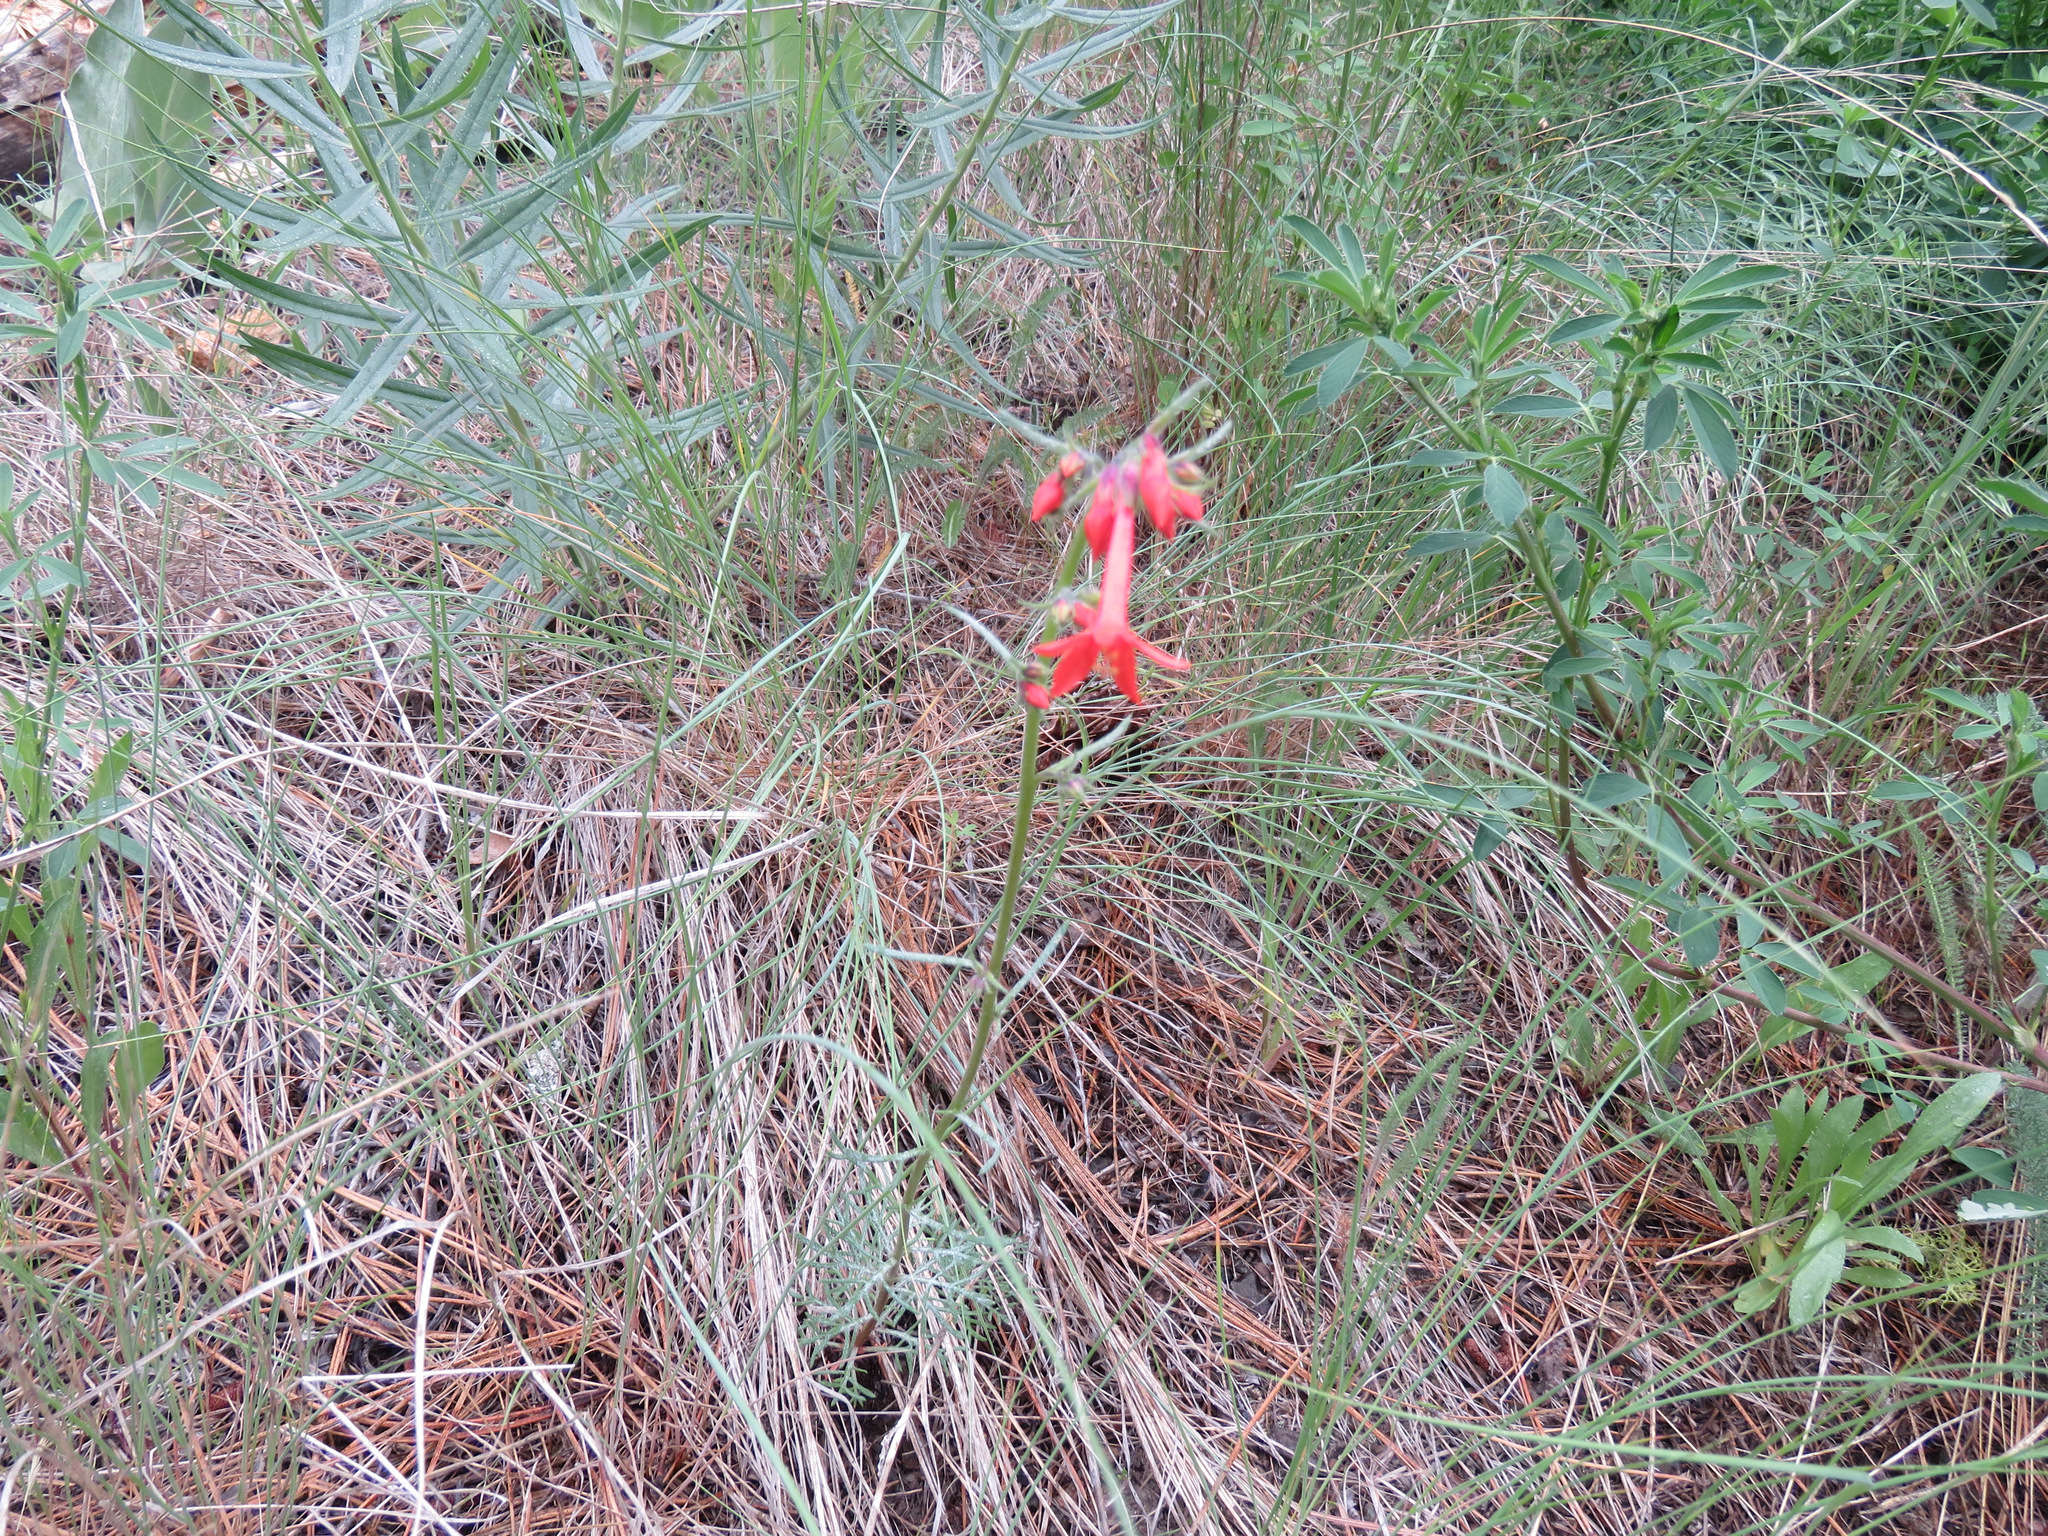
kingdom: Plantae
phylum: Tracheophyta
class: Magnoliopsida
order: Ericales
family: Polemoniaceae
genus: Ipomopsis
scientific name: Ipomopsis aggregata
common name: Scarlet gilia
